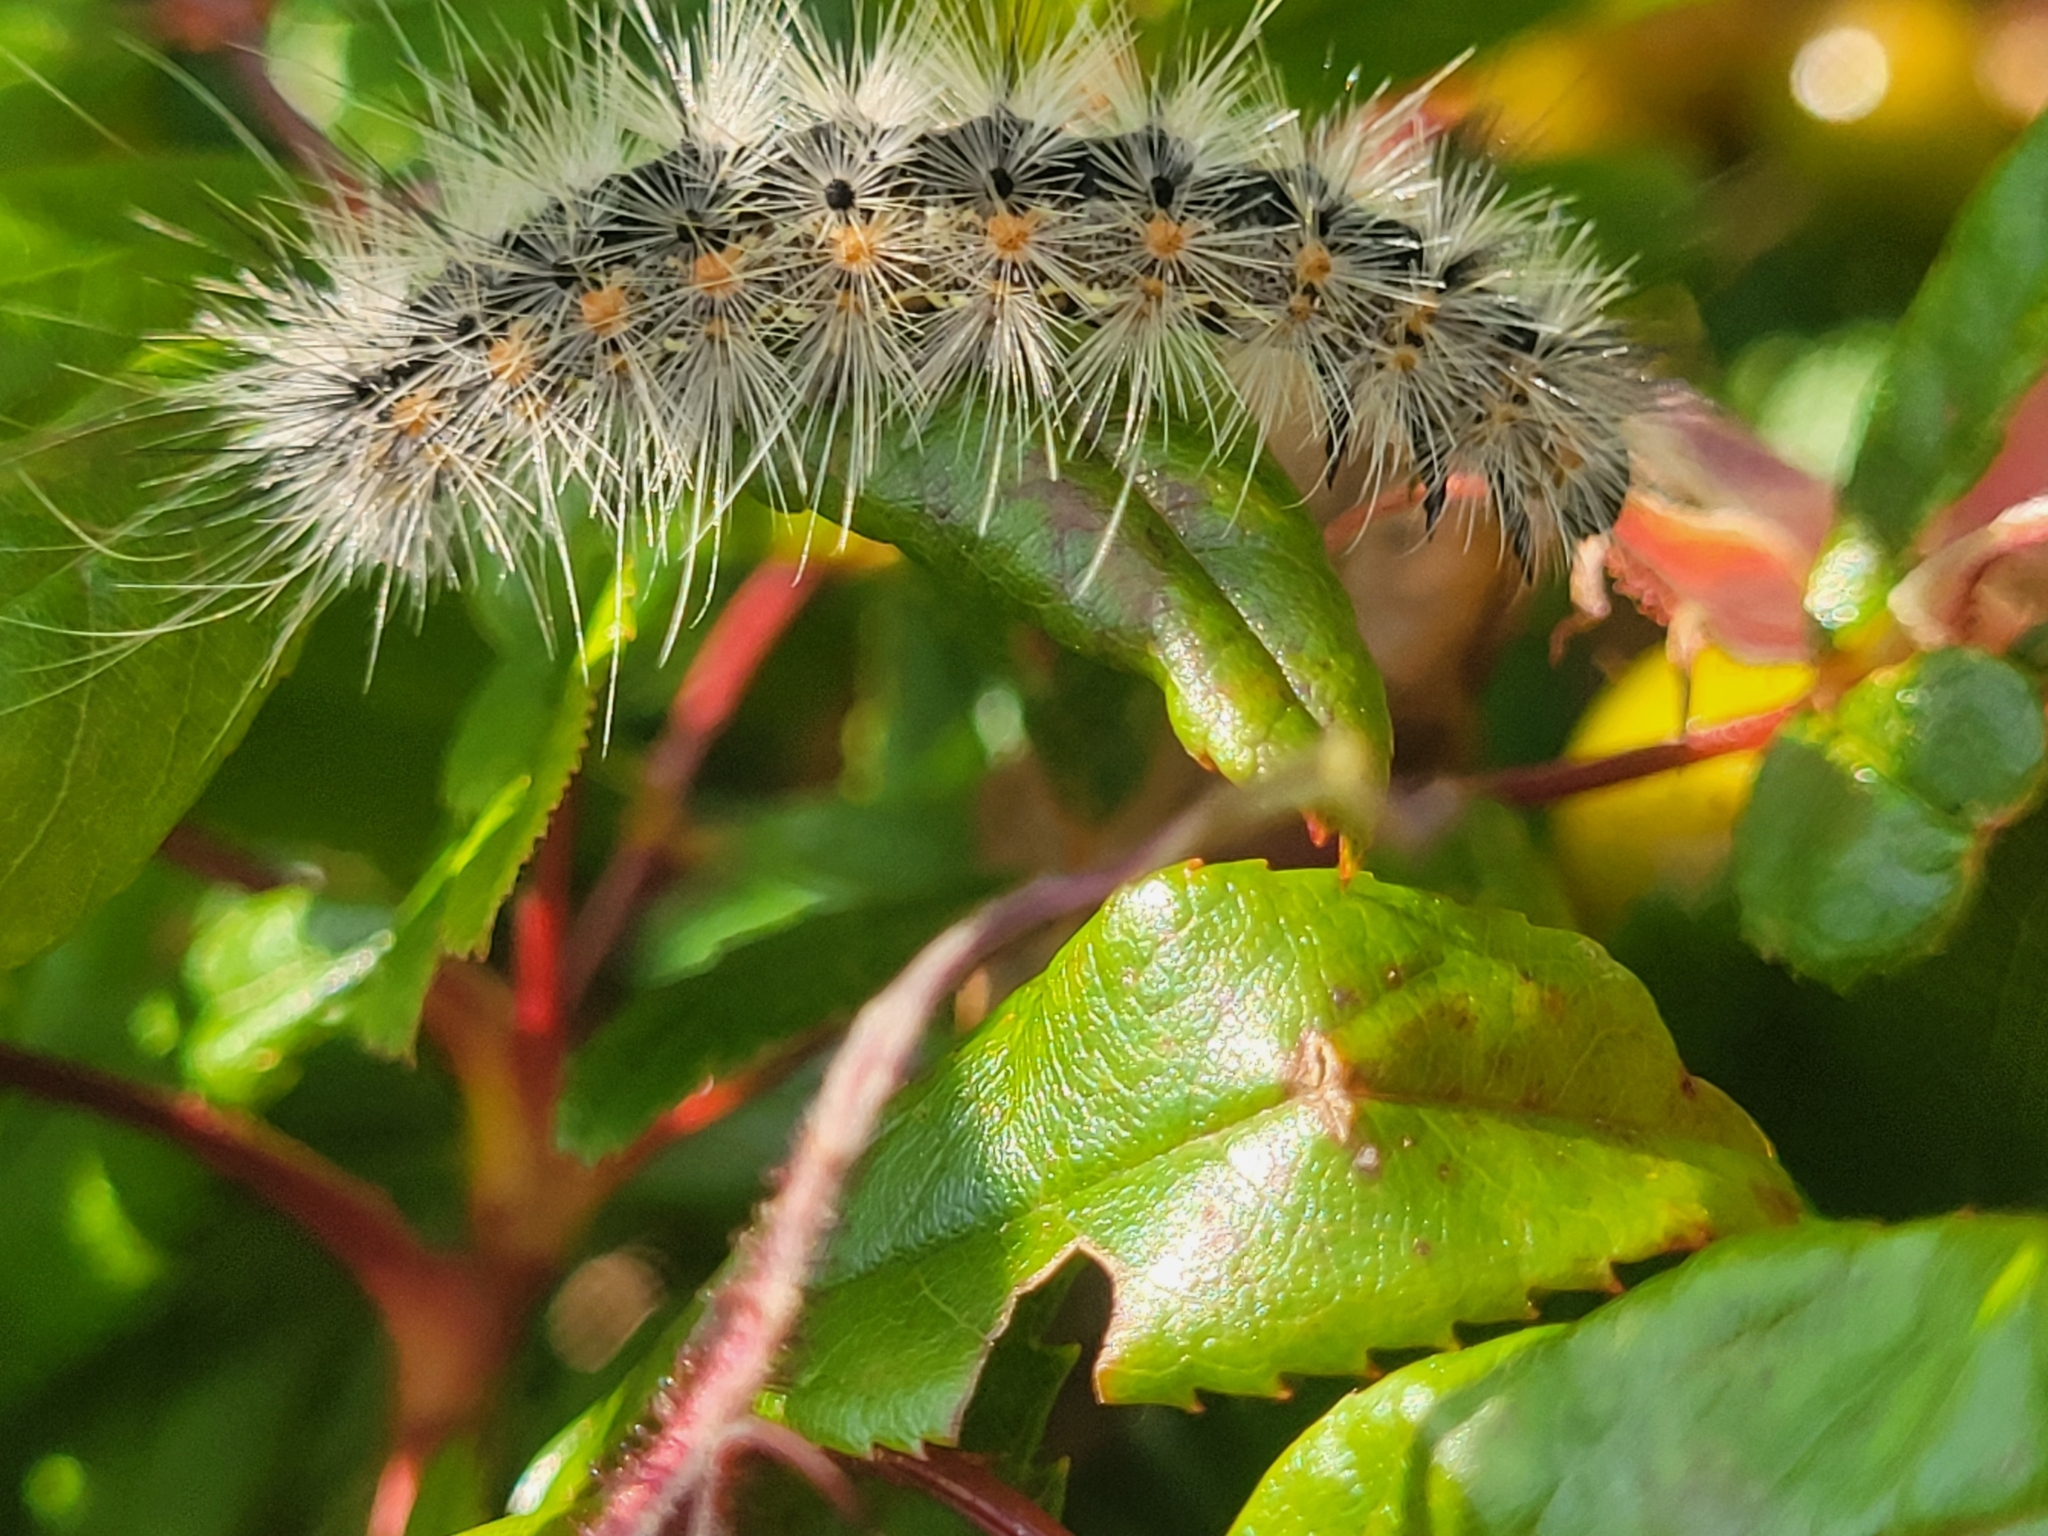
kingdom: Animalia
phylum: Arthropoda
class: Insecta
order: Lepidoptera
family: Erebidae
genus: Hyphantria
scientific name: Hyphantria cunea
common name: American white moth
